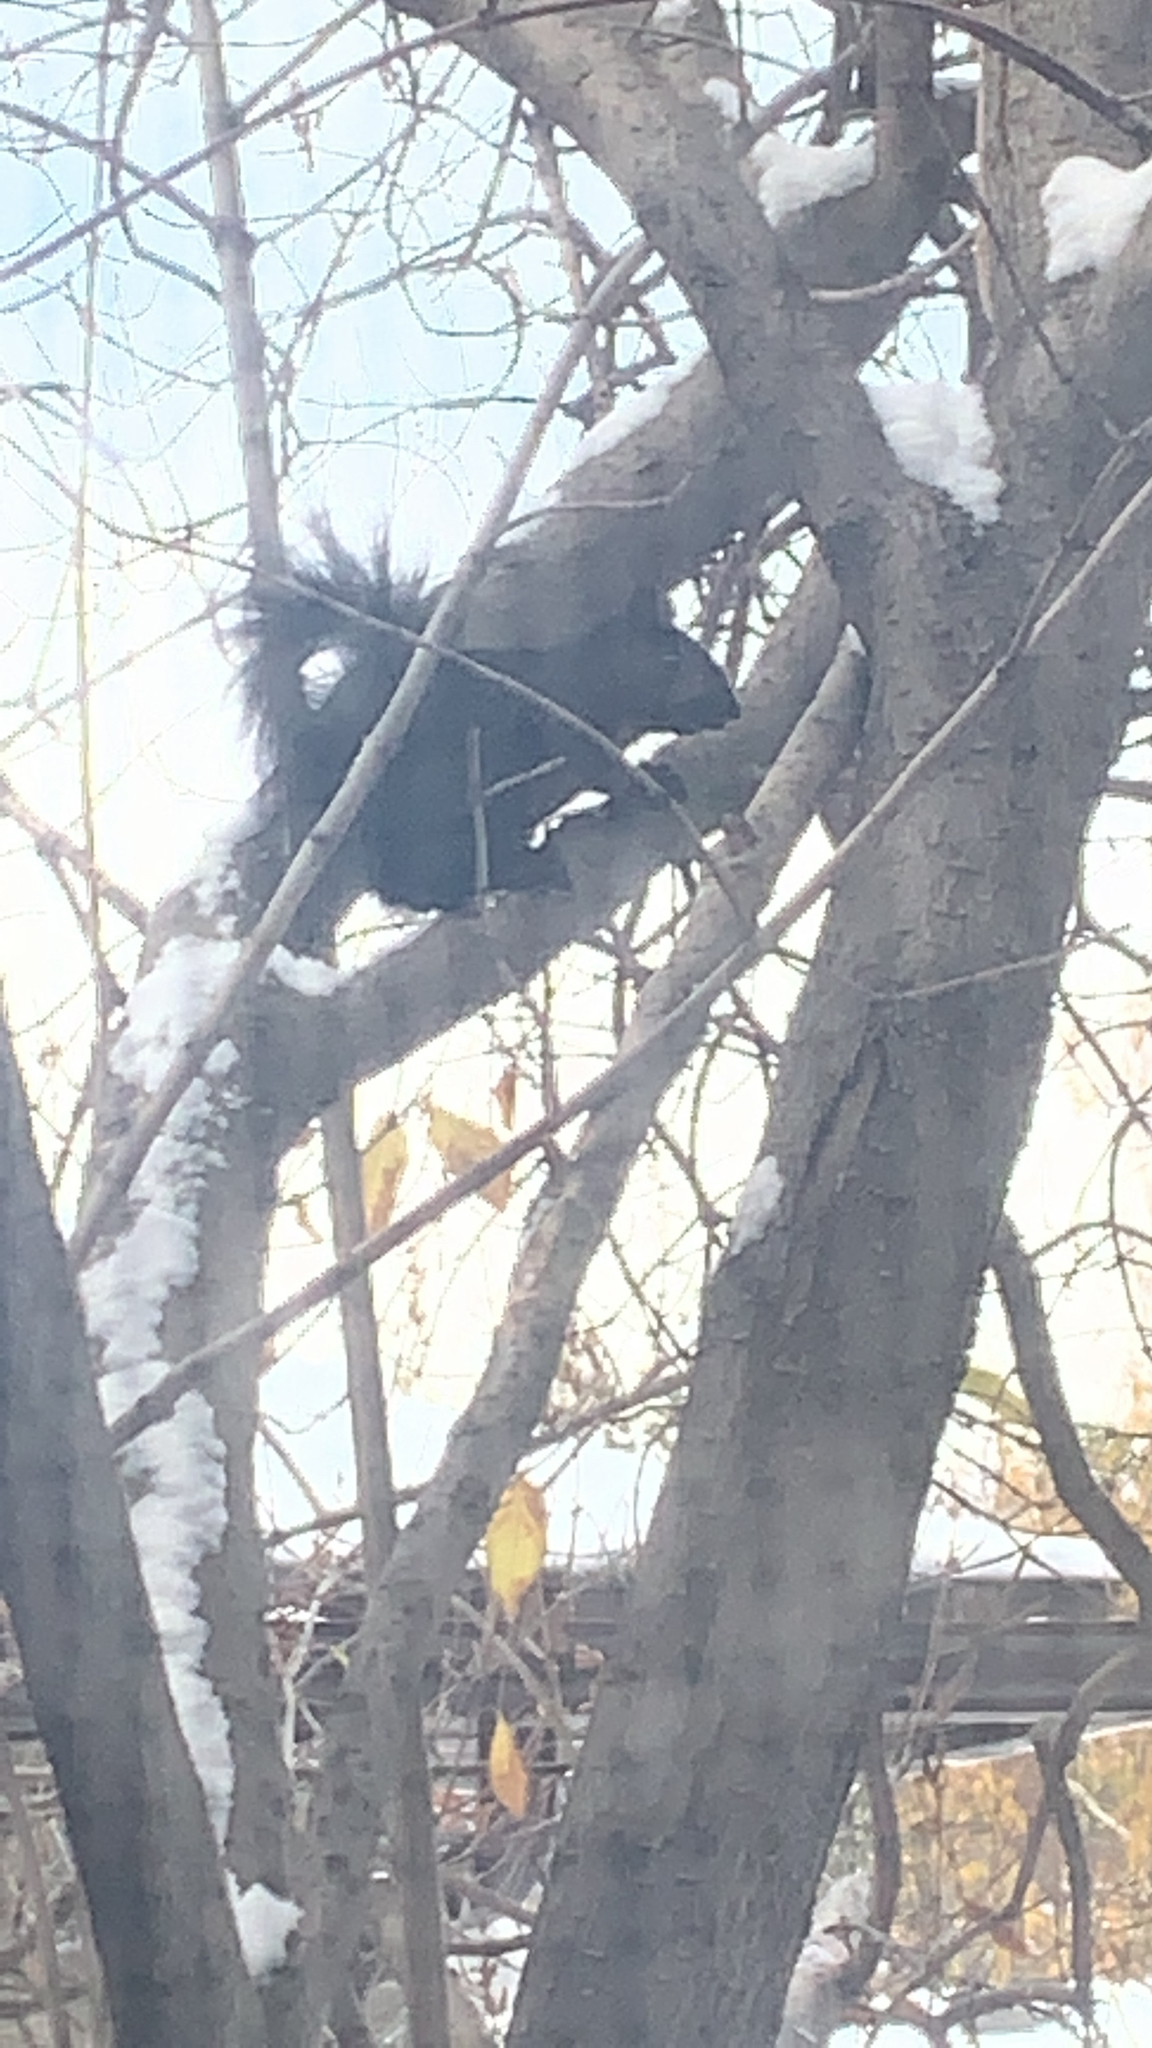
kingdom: Animalia
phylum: Chordata
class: Mammalia
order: Rodentia
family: Sciuridae
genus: Sciurus
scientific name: Sciurus carolinensis
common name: Eastern gray squirrel
